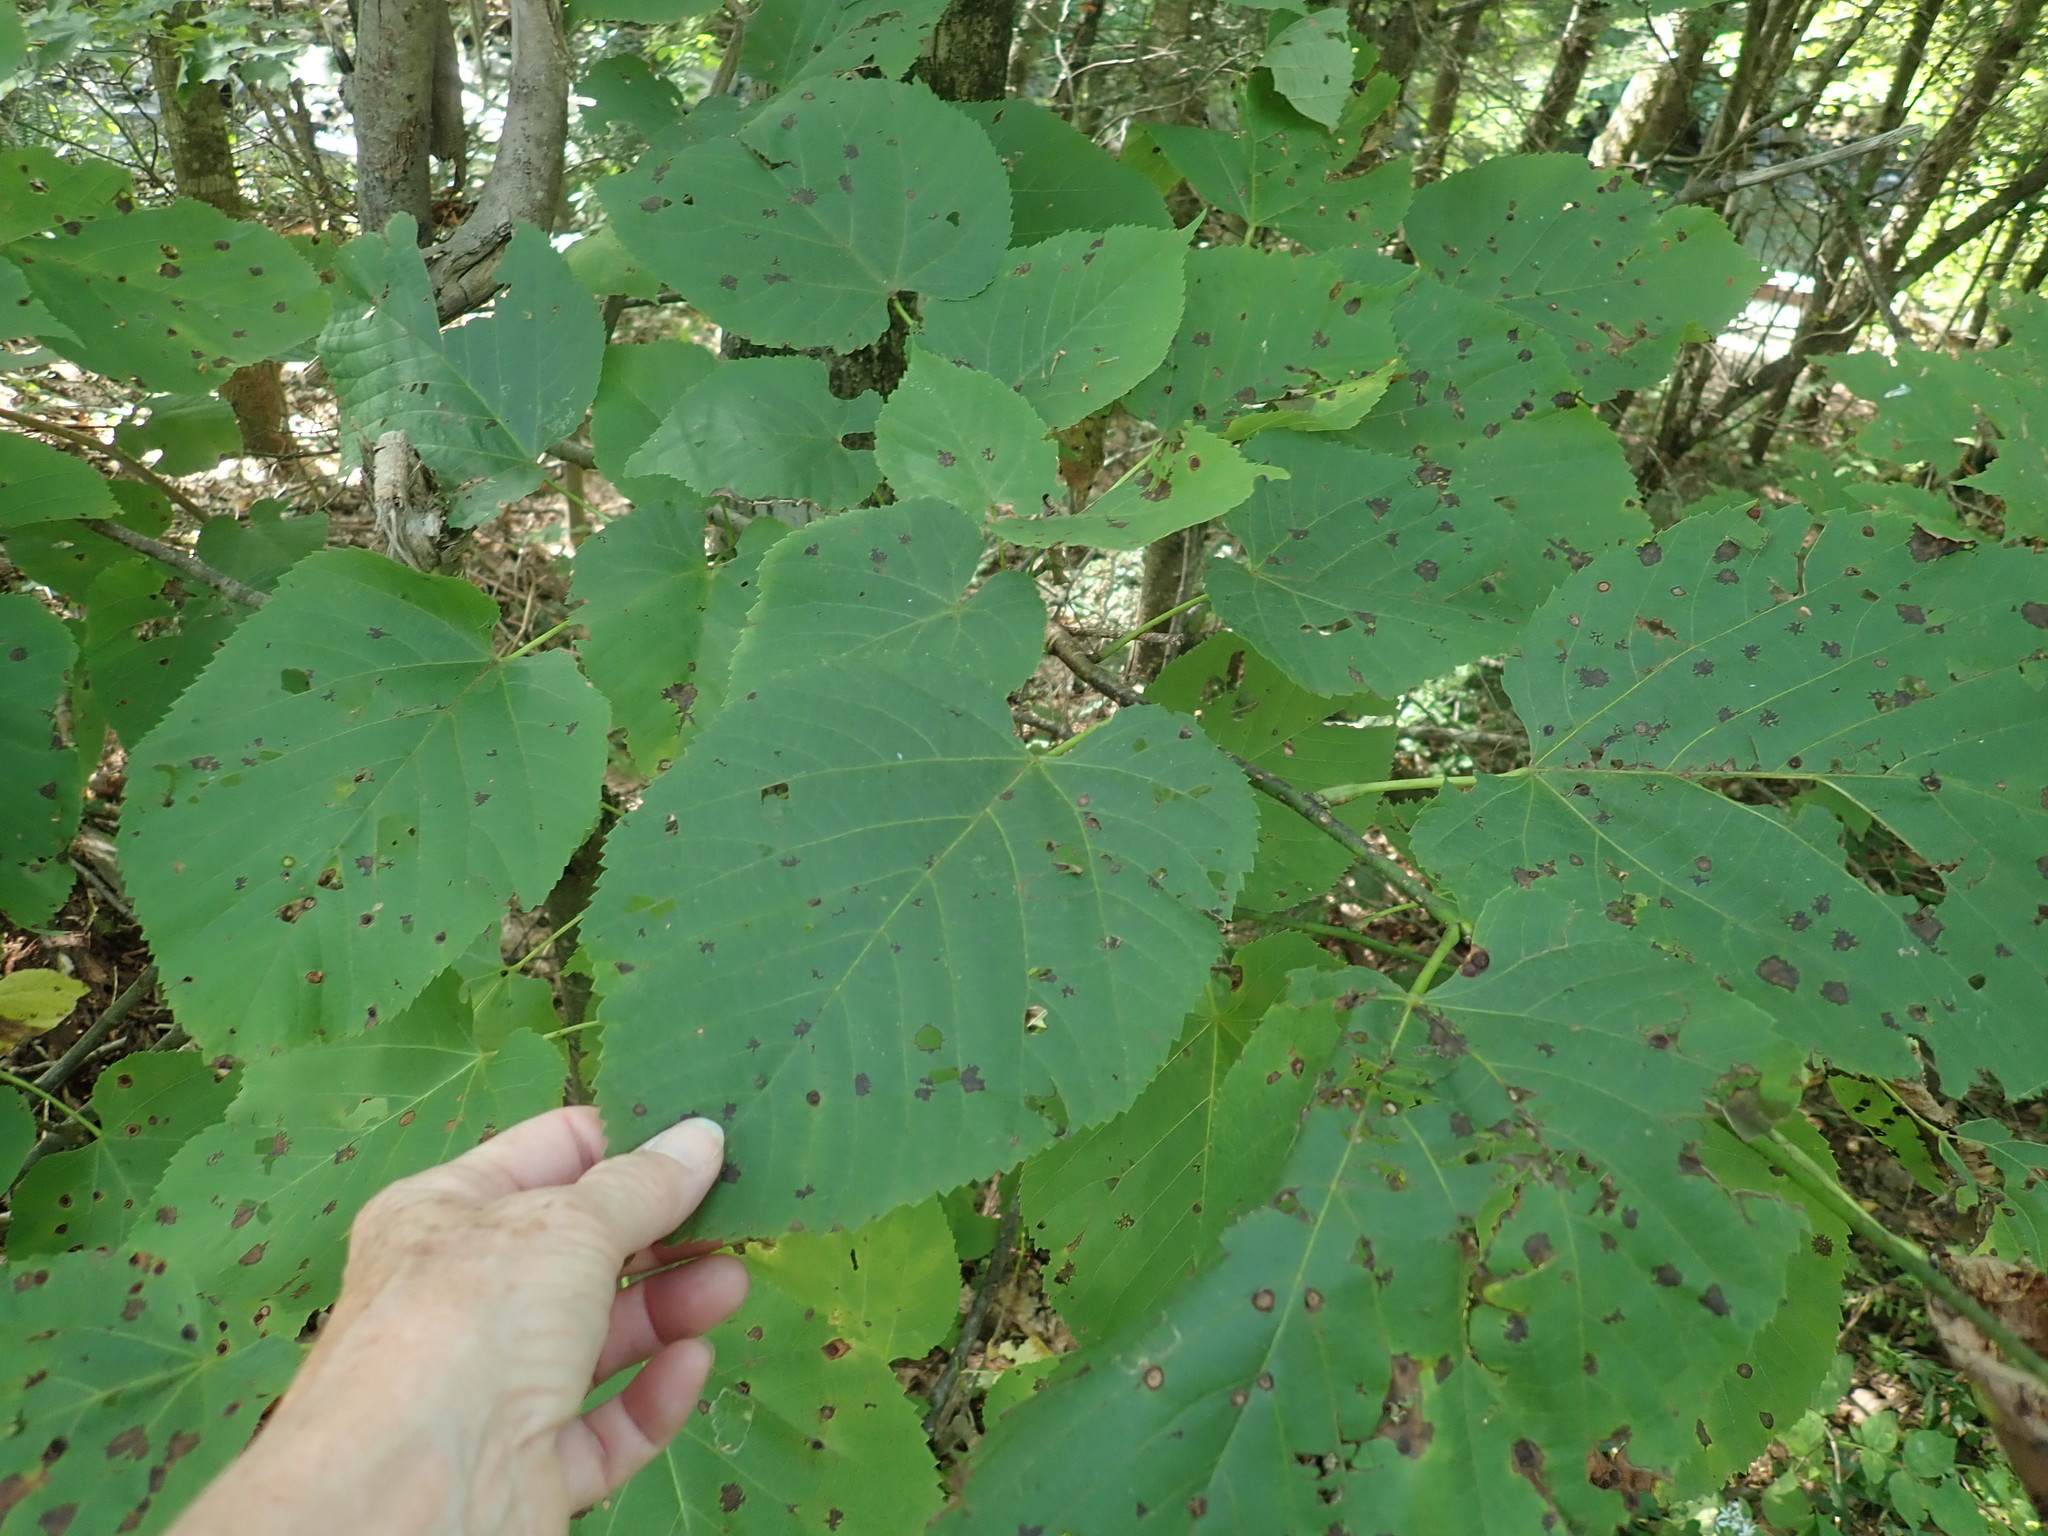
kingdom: Plantae
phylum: Tracheophyta
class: Magnoliopsida
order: Malvales
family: Malvaceae
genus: Tilia
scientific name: Tilia americana
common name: Basswood
